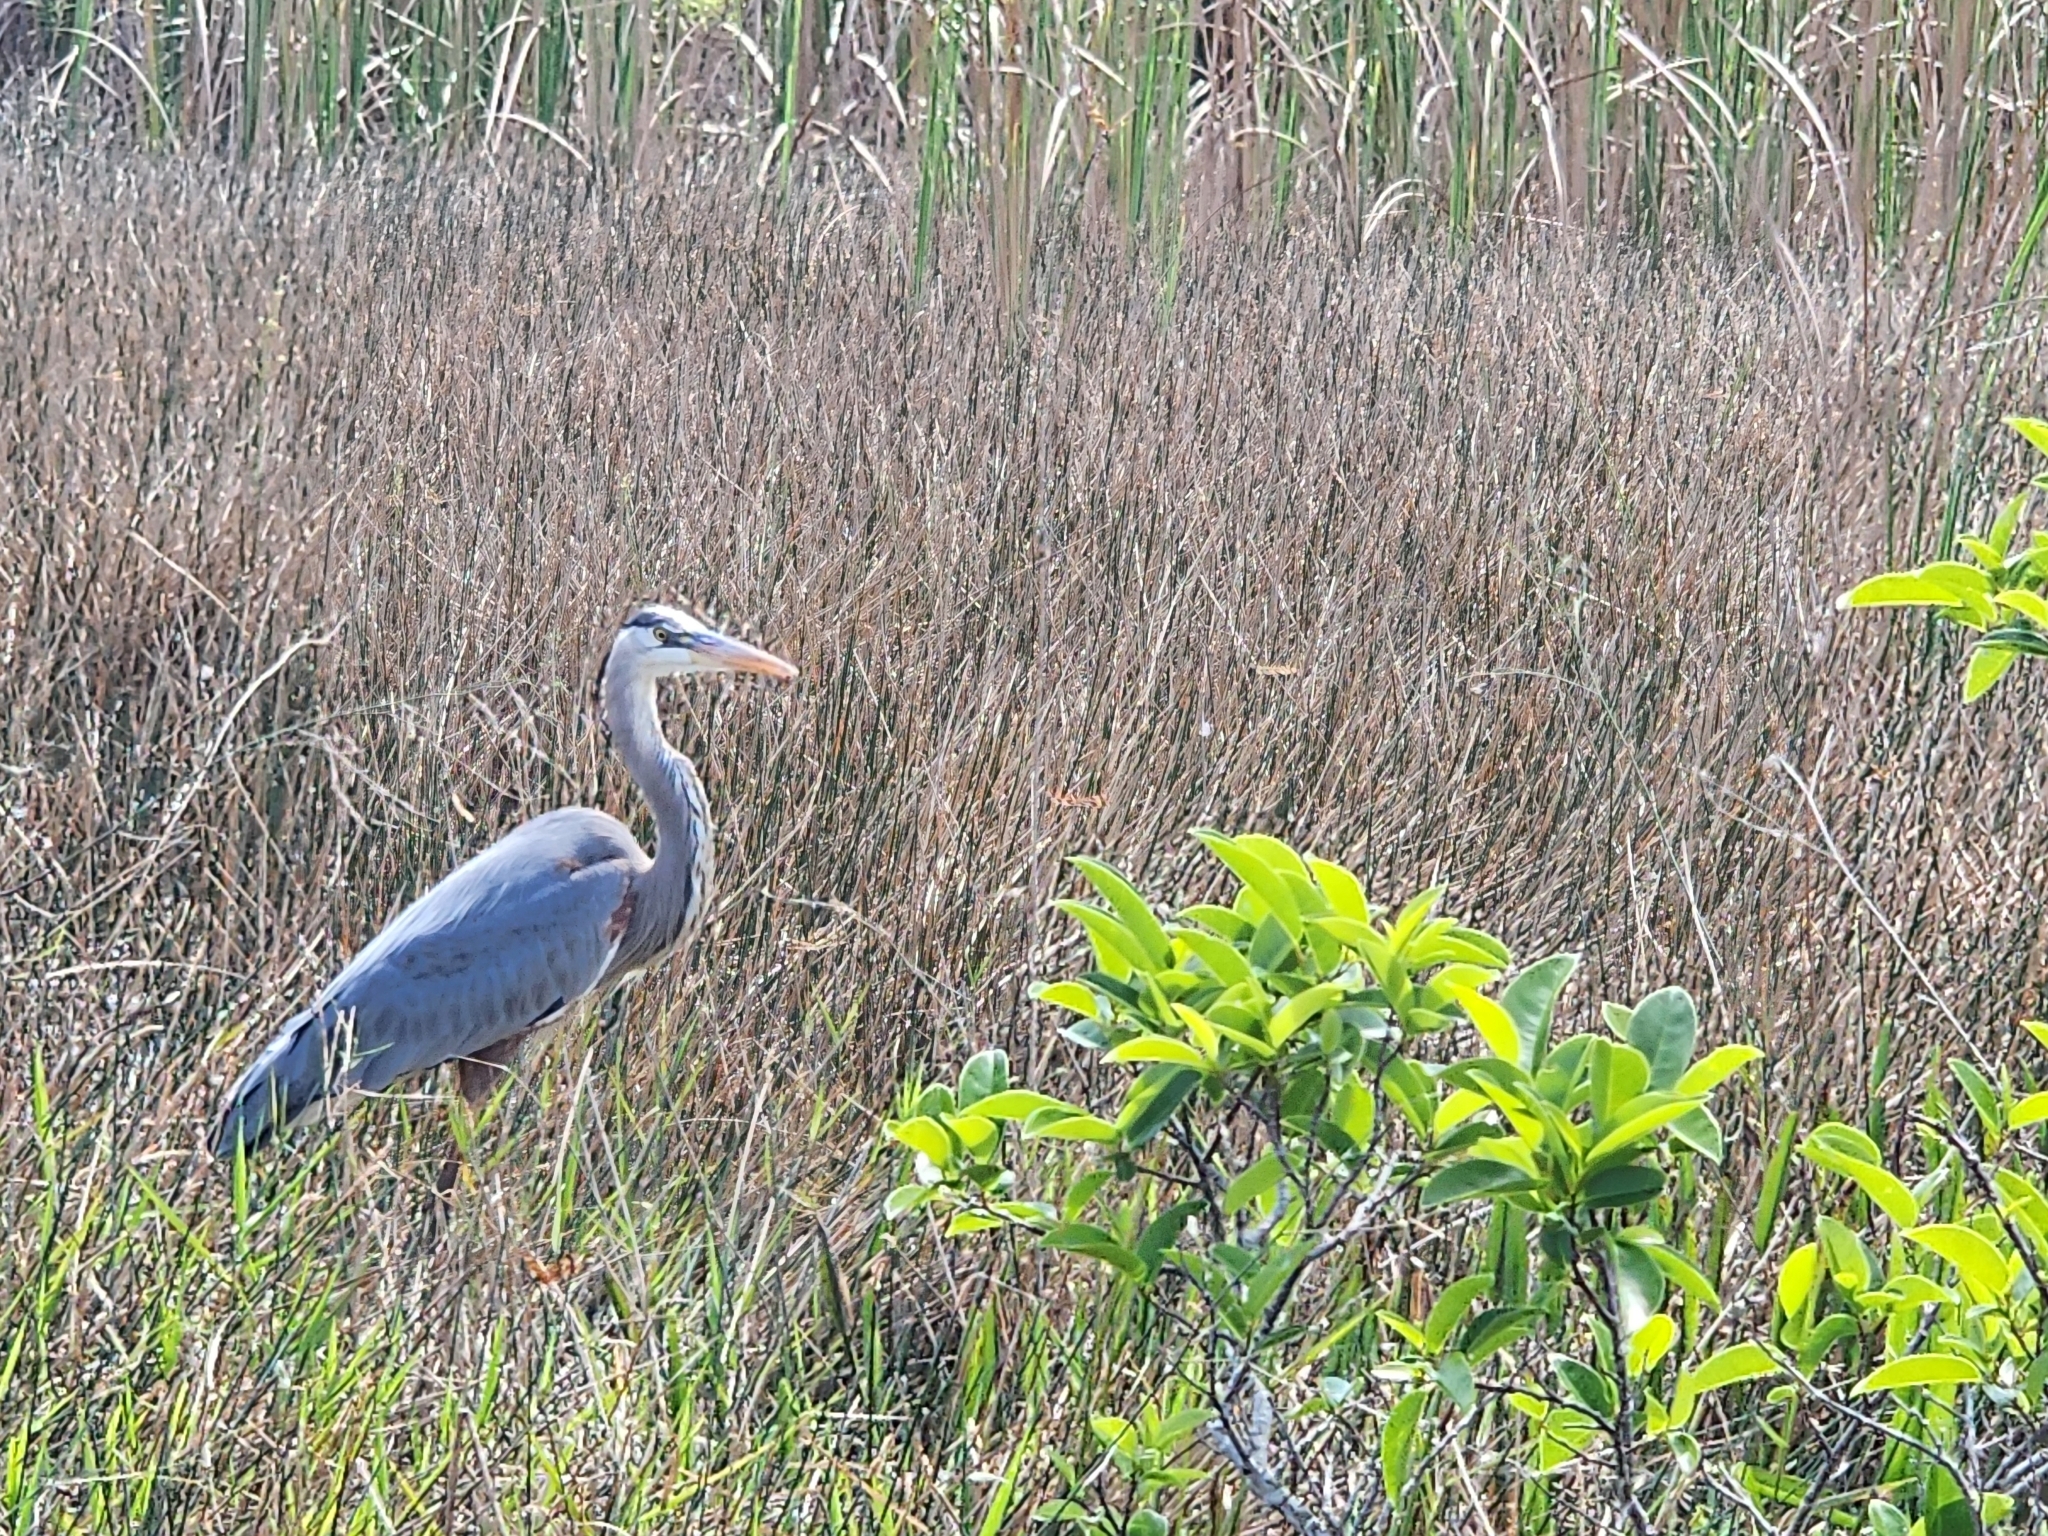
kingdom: Animalia
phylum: Chordata
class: Aves
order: Pelecaniformes
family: Ardeidae
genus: Ardea
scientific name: Ardea herodias
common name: Great blue heron
